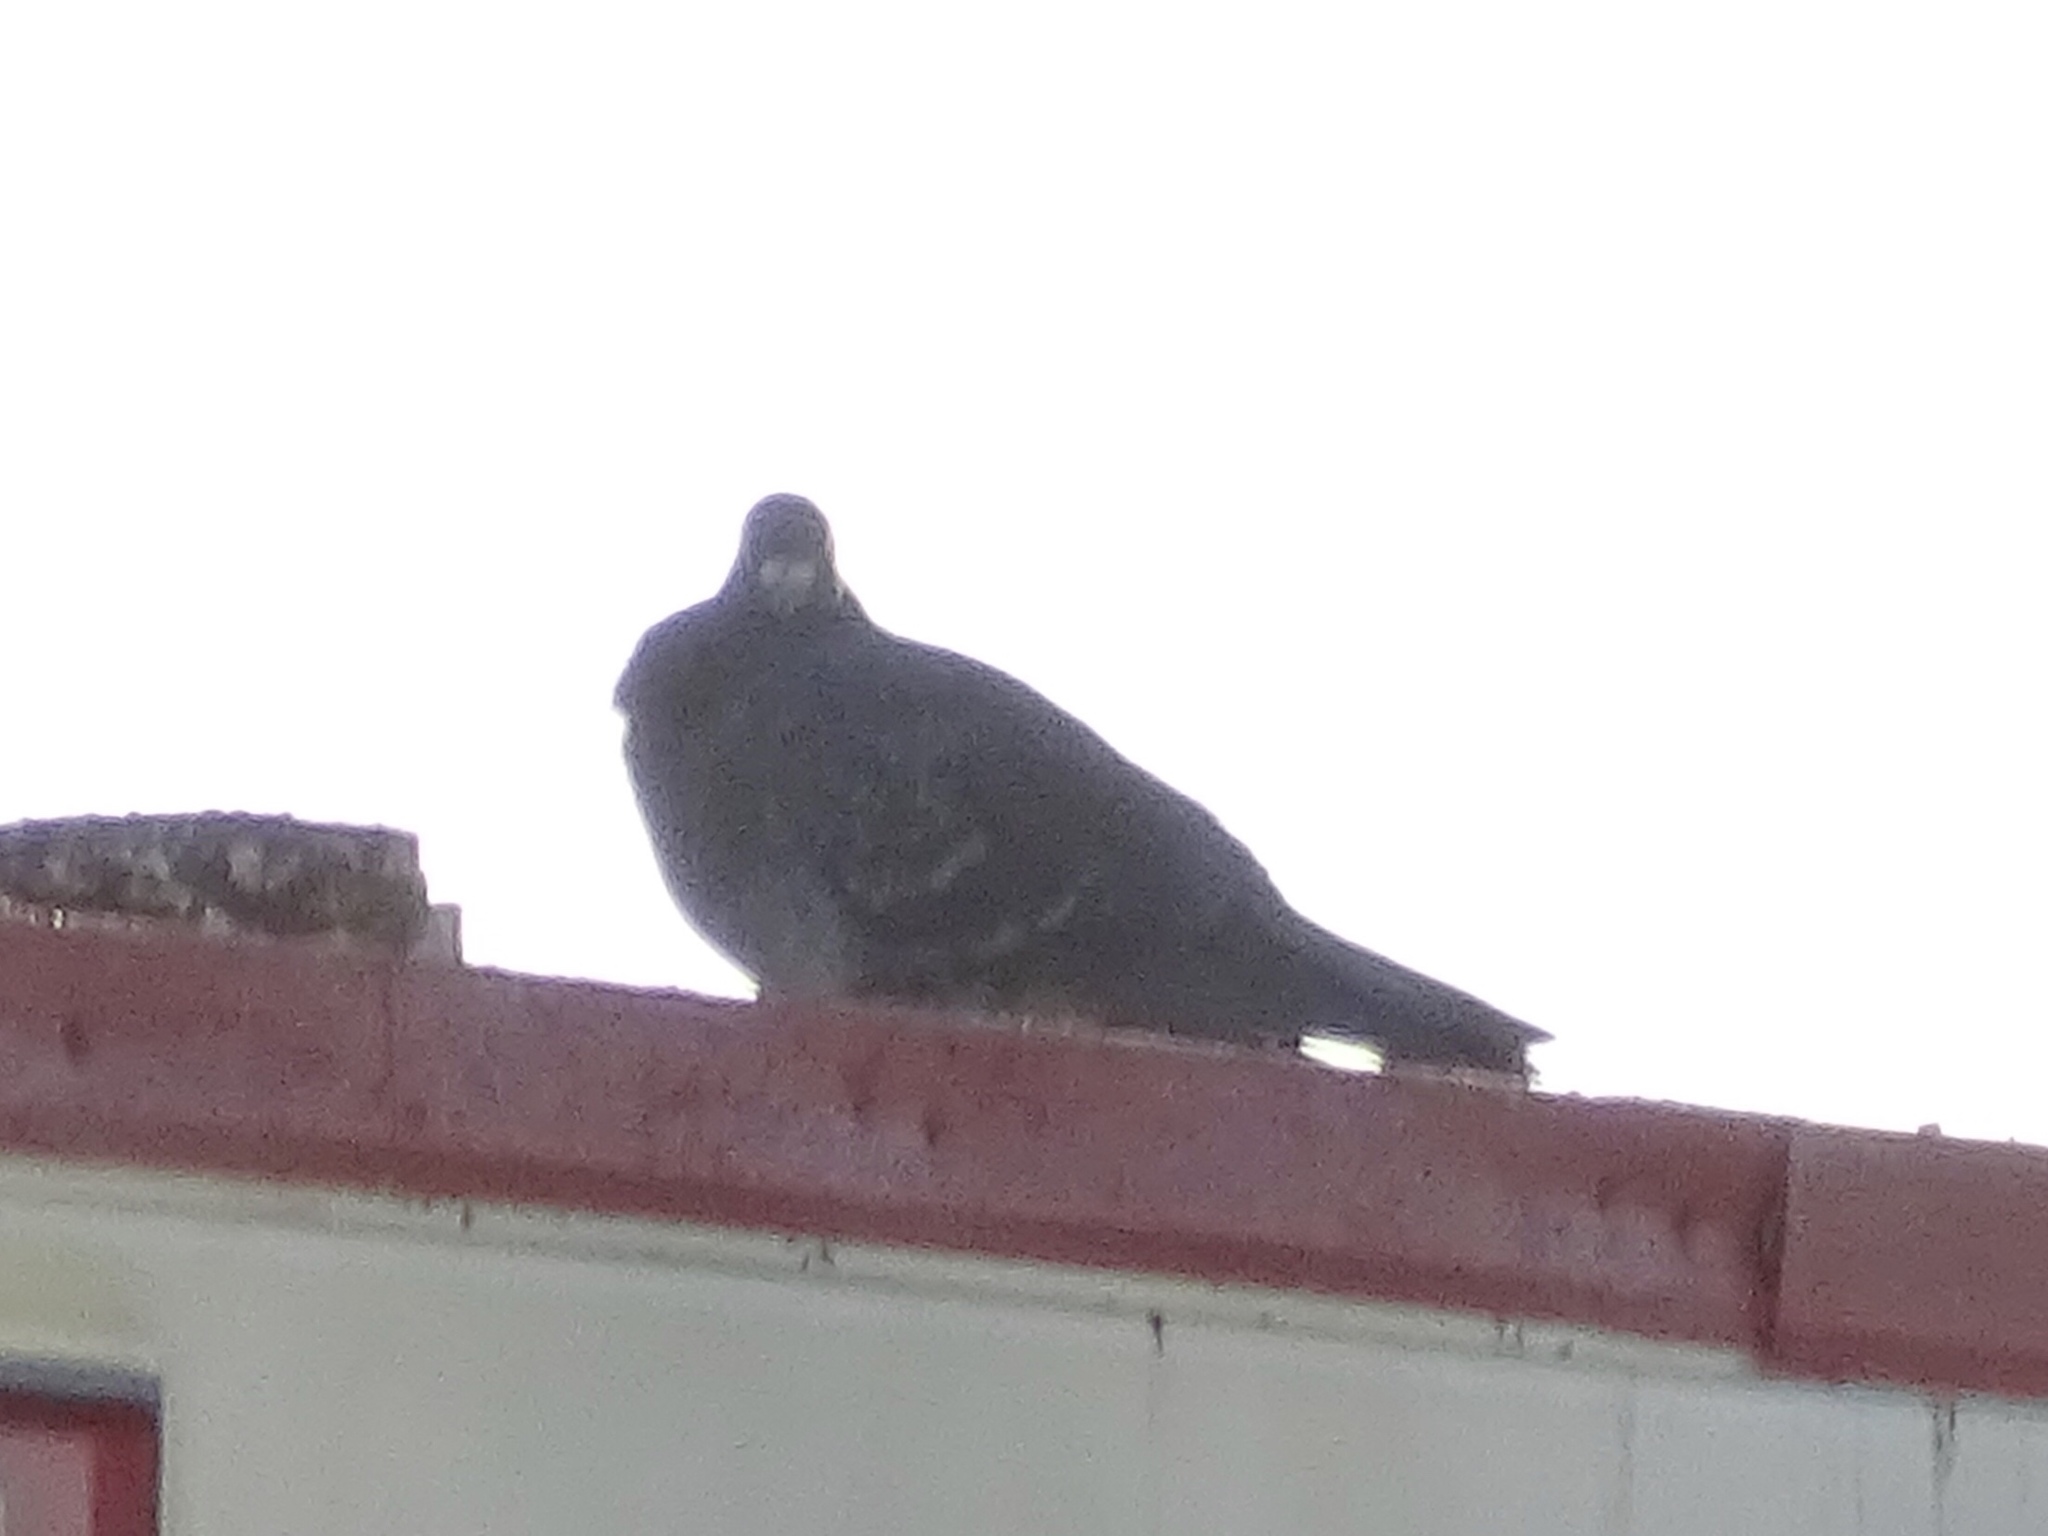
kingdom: Animalia
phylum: Chordata
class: Aves
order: Columbiformes
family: Columbidae
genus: Columba
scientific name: Columba livia
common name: Rock pigeon
